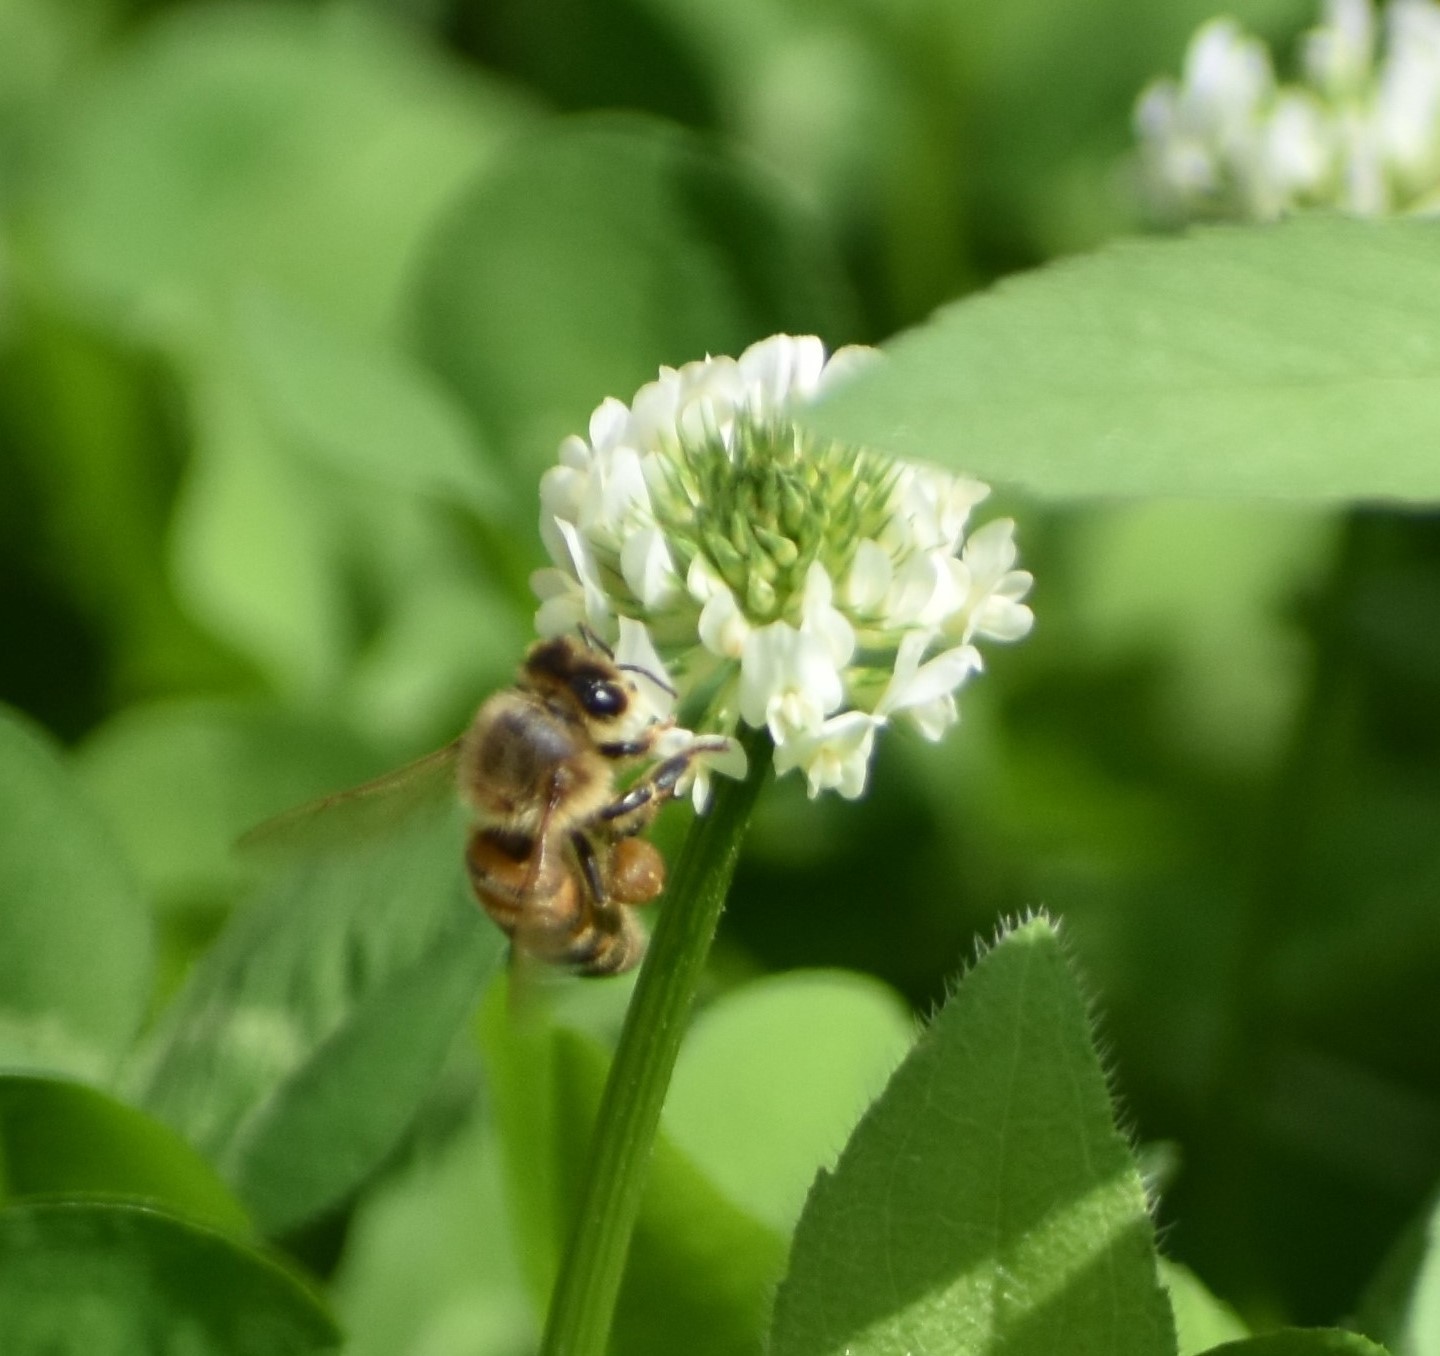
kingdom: Animalia
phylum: Arthropoda
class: Insecta
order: Hymenoptera
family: Apidae
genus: Apis
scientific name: Apis mellifera
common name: Honey bee
